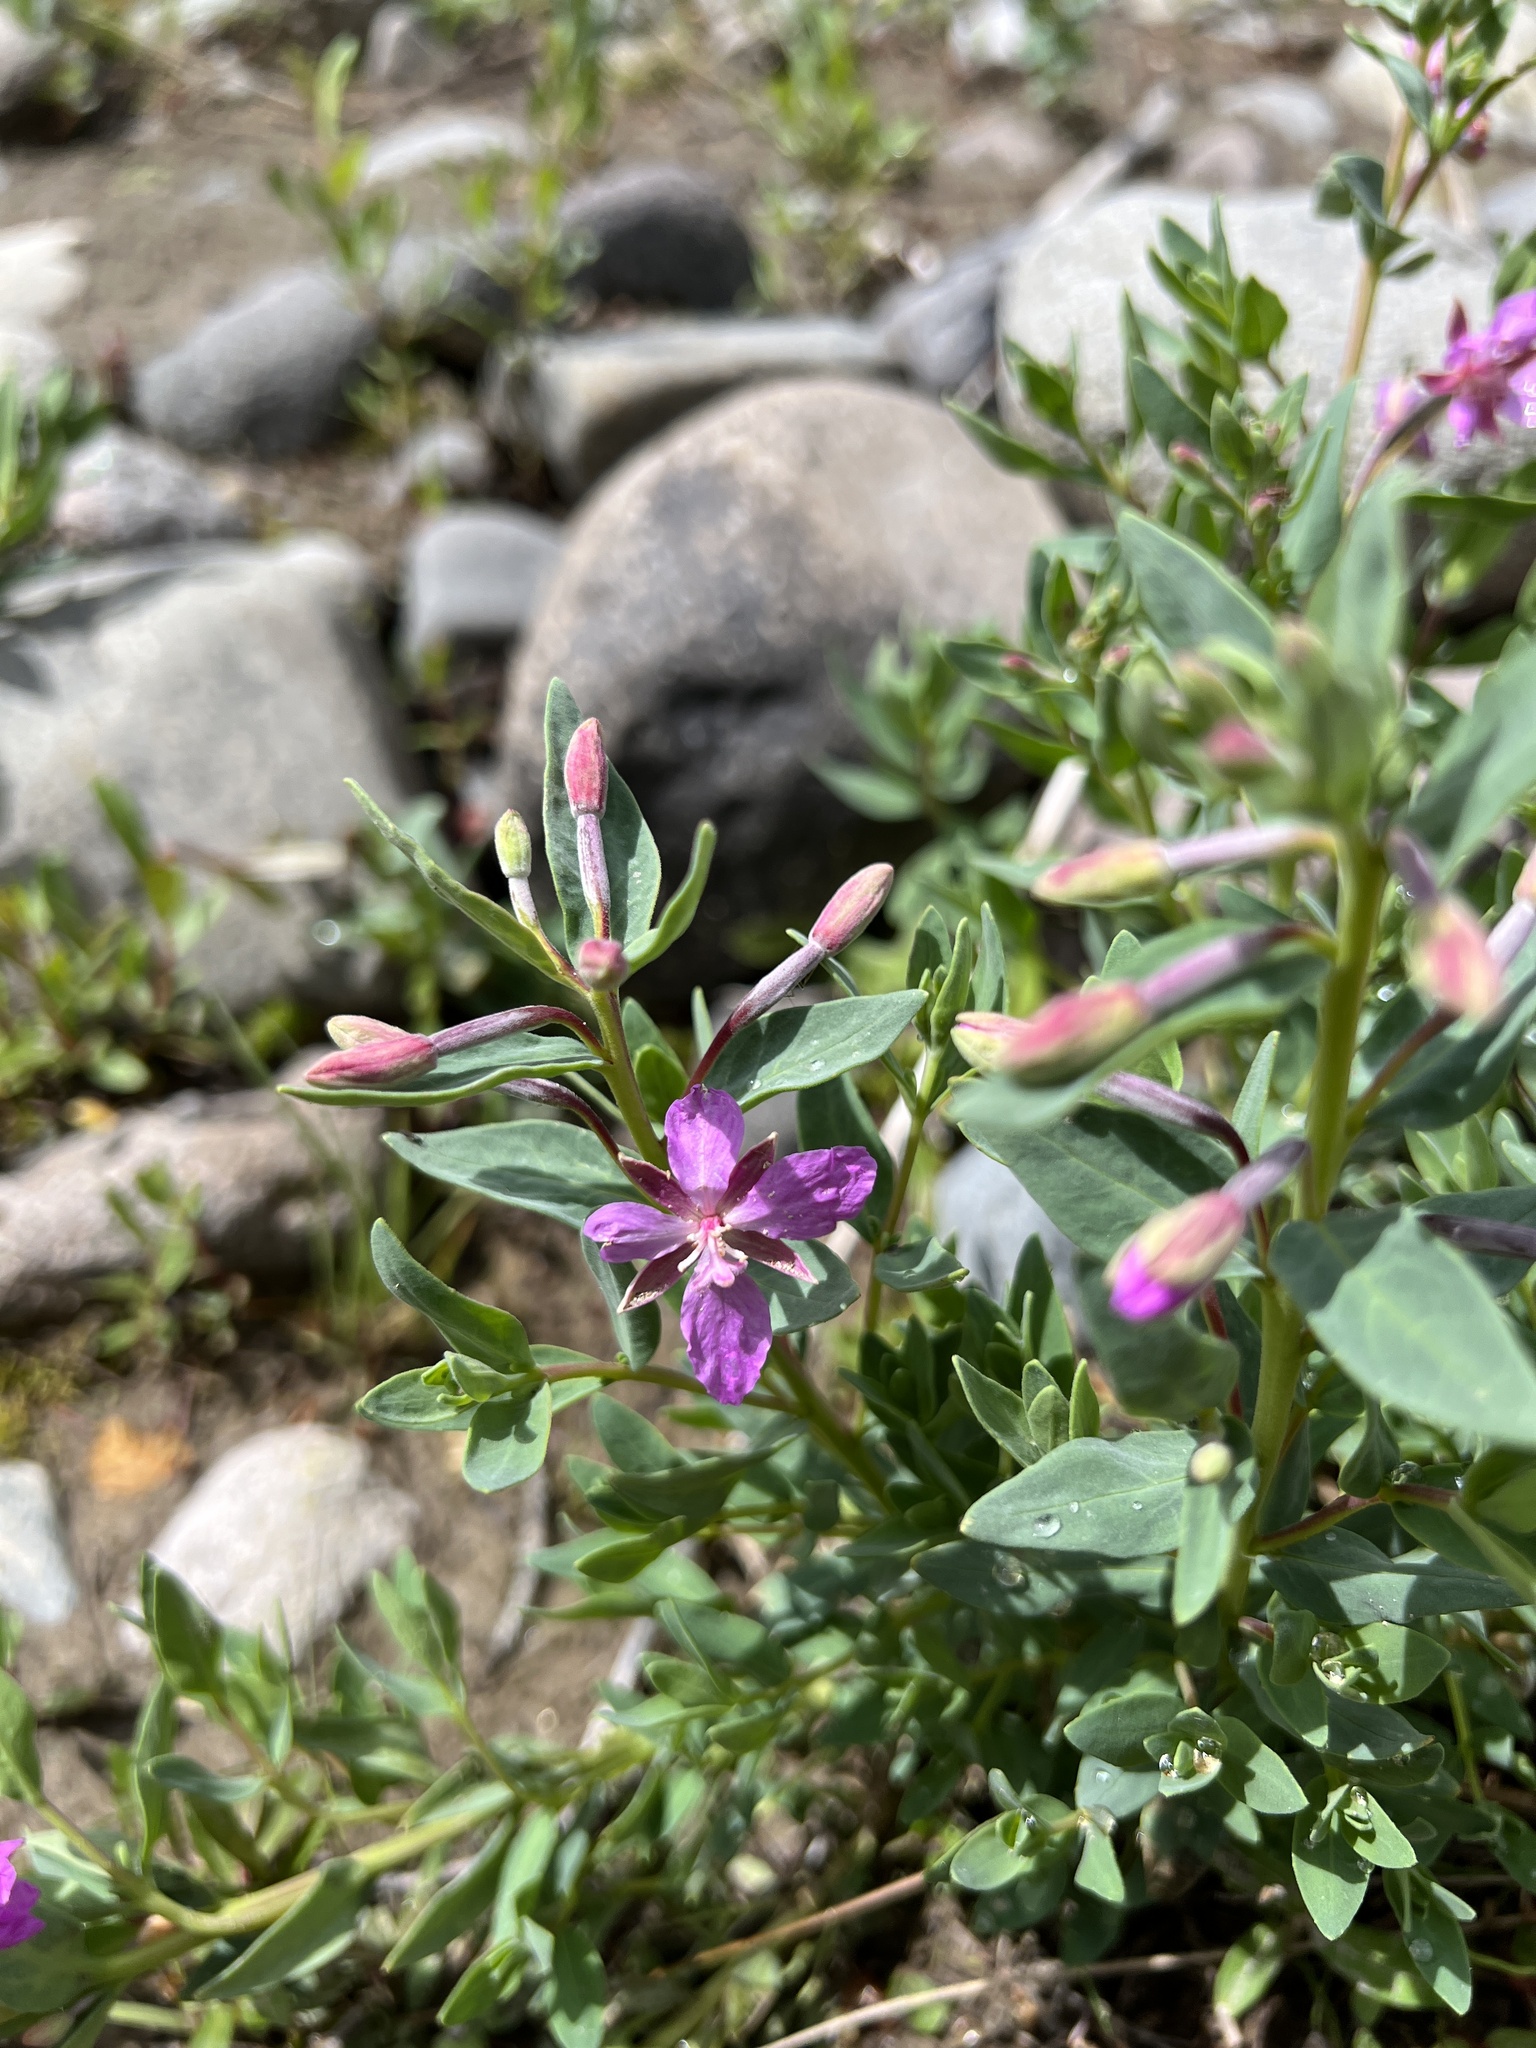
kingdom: Plantae
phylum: Tracheophyta
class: Magnoliopsida
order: Myrtales
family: Onagraceae
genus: Chamaenerion
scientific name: Chamaenerion angustifolium
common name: Fireweed
